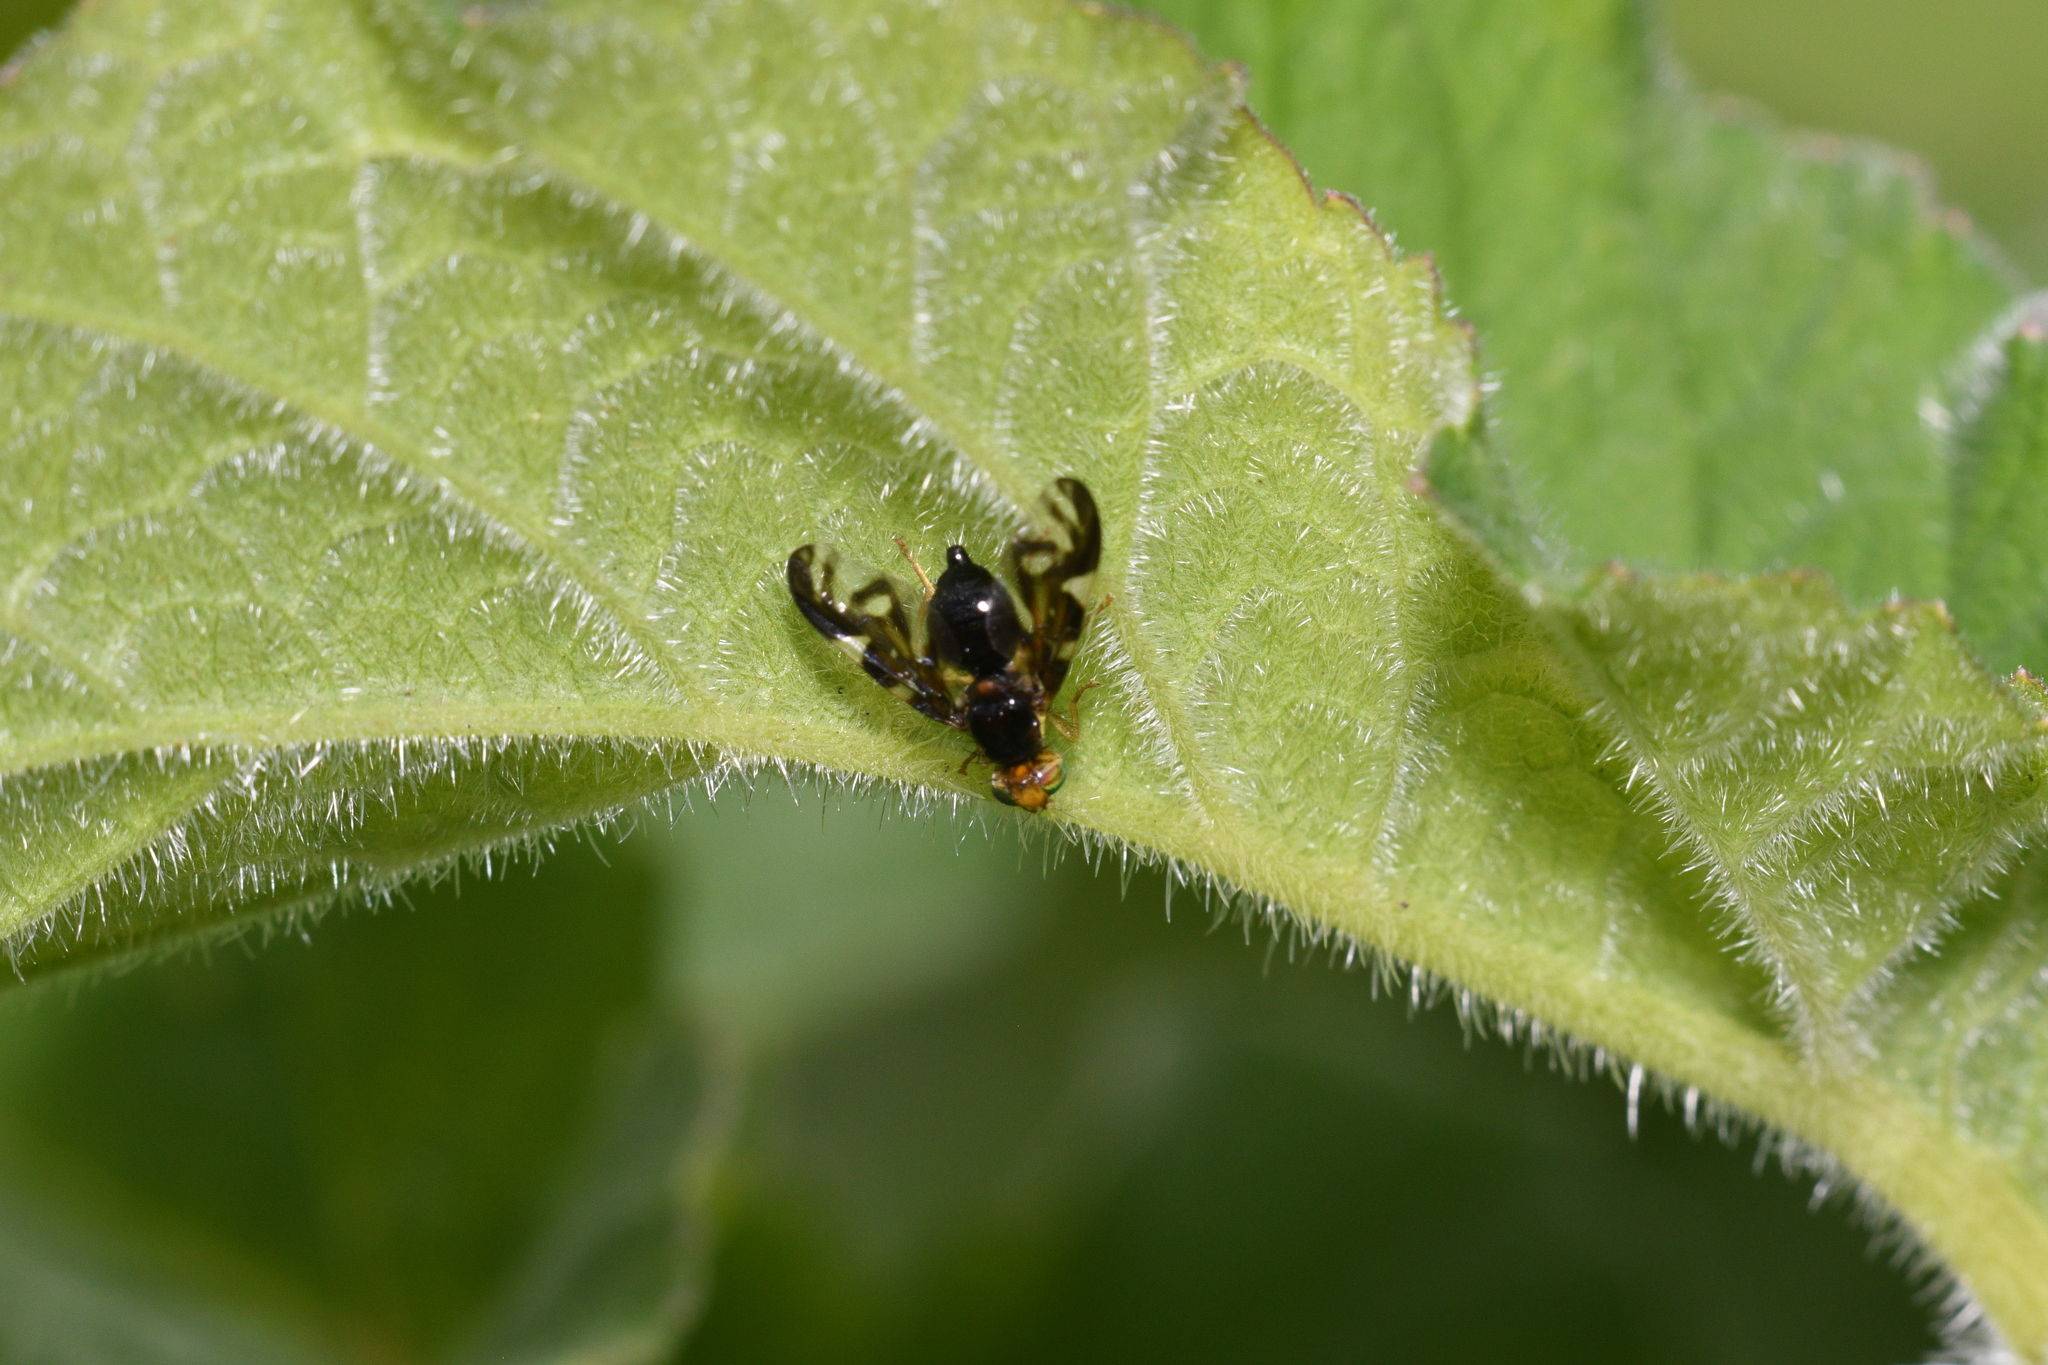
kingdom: Animalia
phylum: Arthropoda
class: Insecta
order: Diptera
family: Tephritidae
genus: Euleia
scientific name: Euleia heraclei
